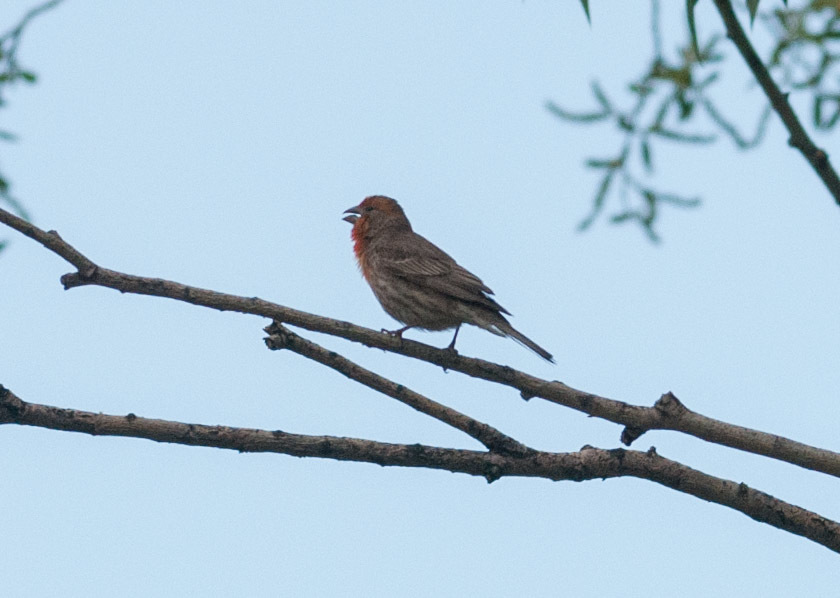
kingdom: Animalia
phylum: Chordata
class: Aves
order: Passeriformes
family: Fringillidae
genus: Haemorhous
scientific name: Haemorhous mexicanus
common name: House finch
